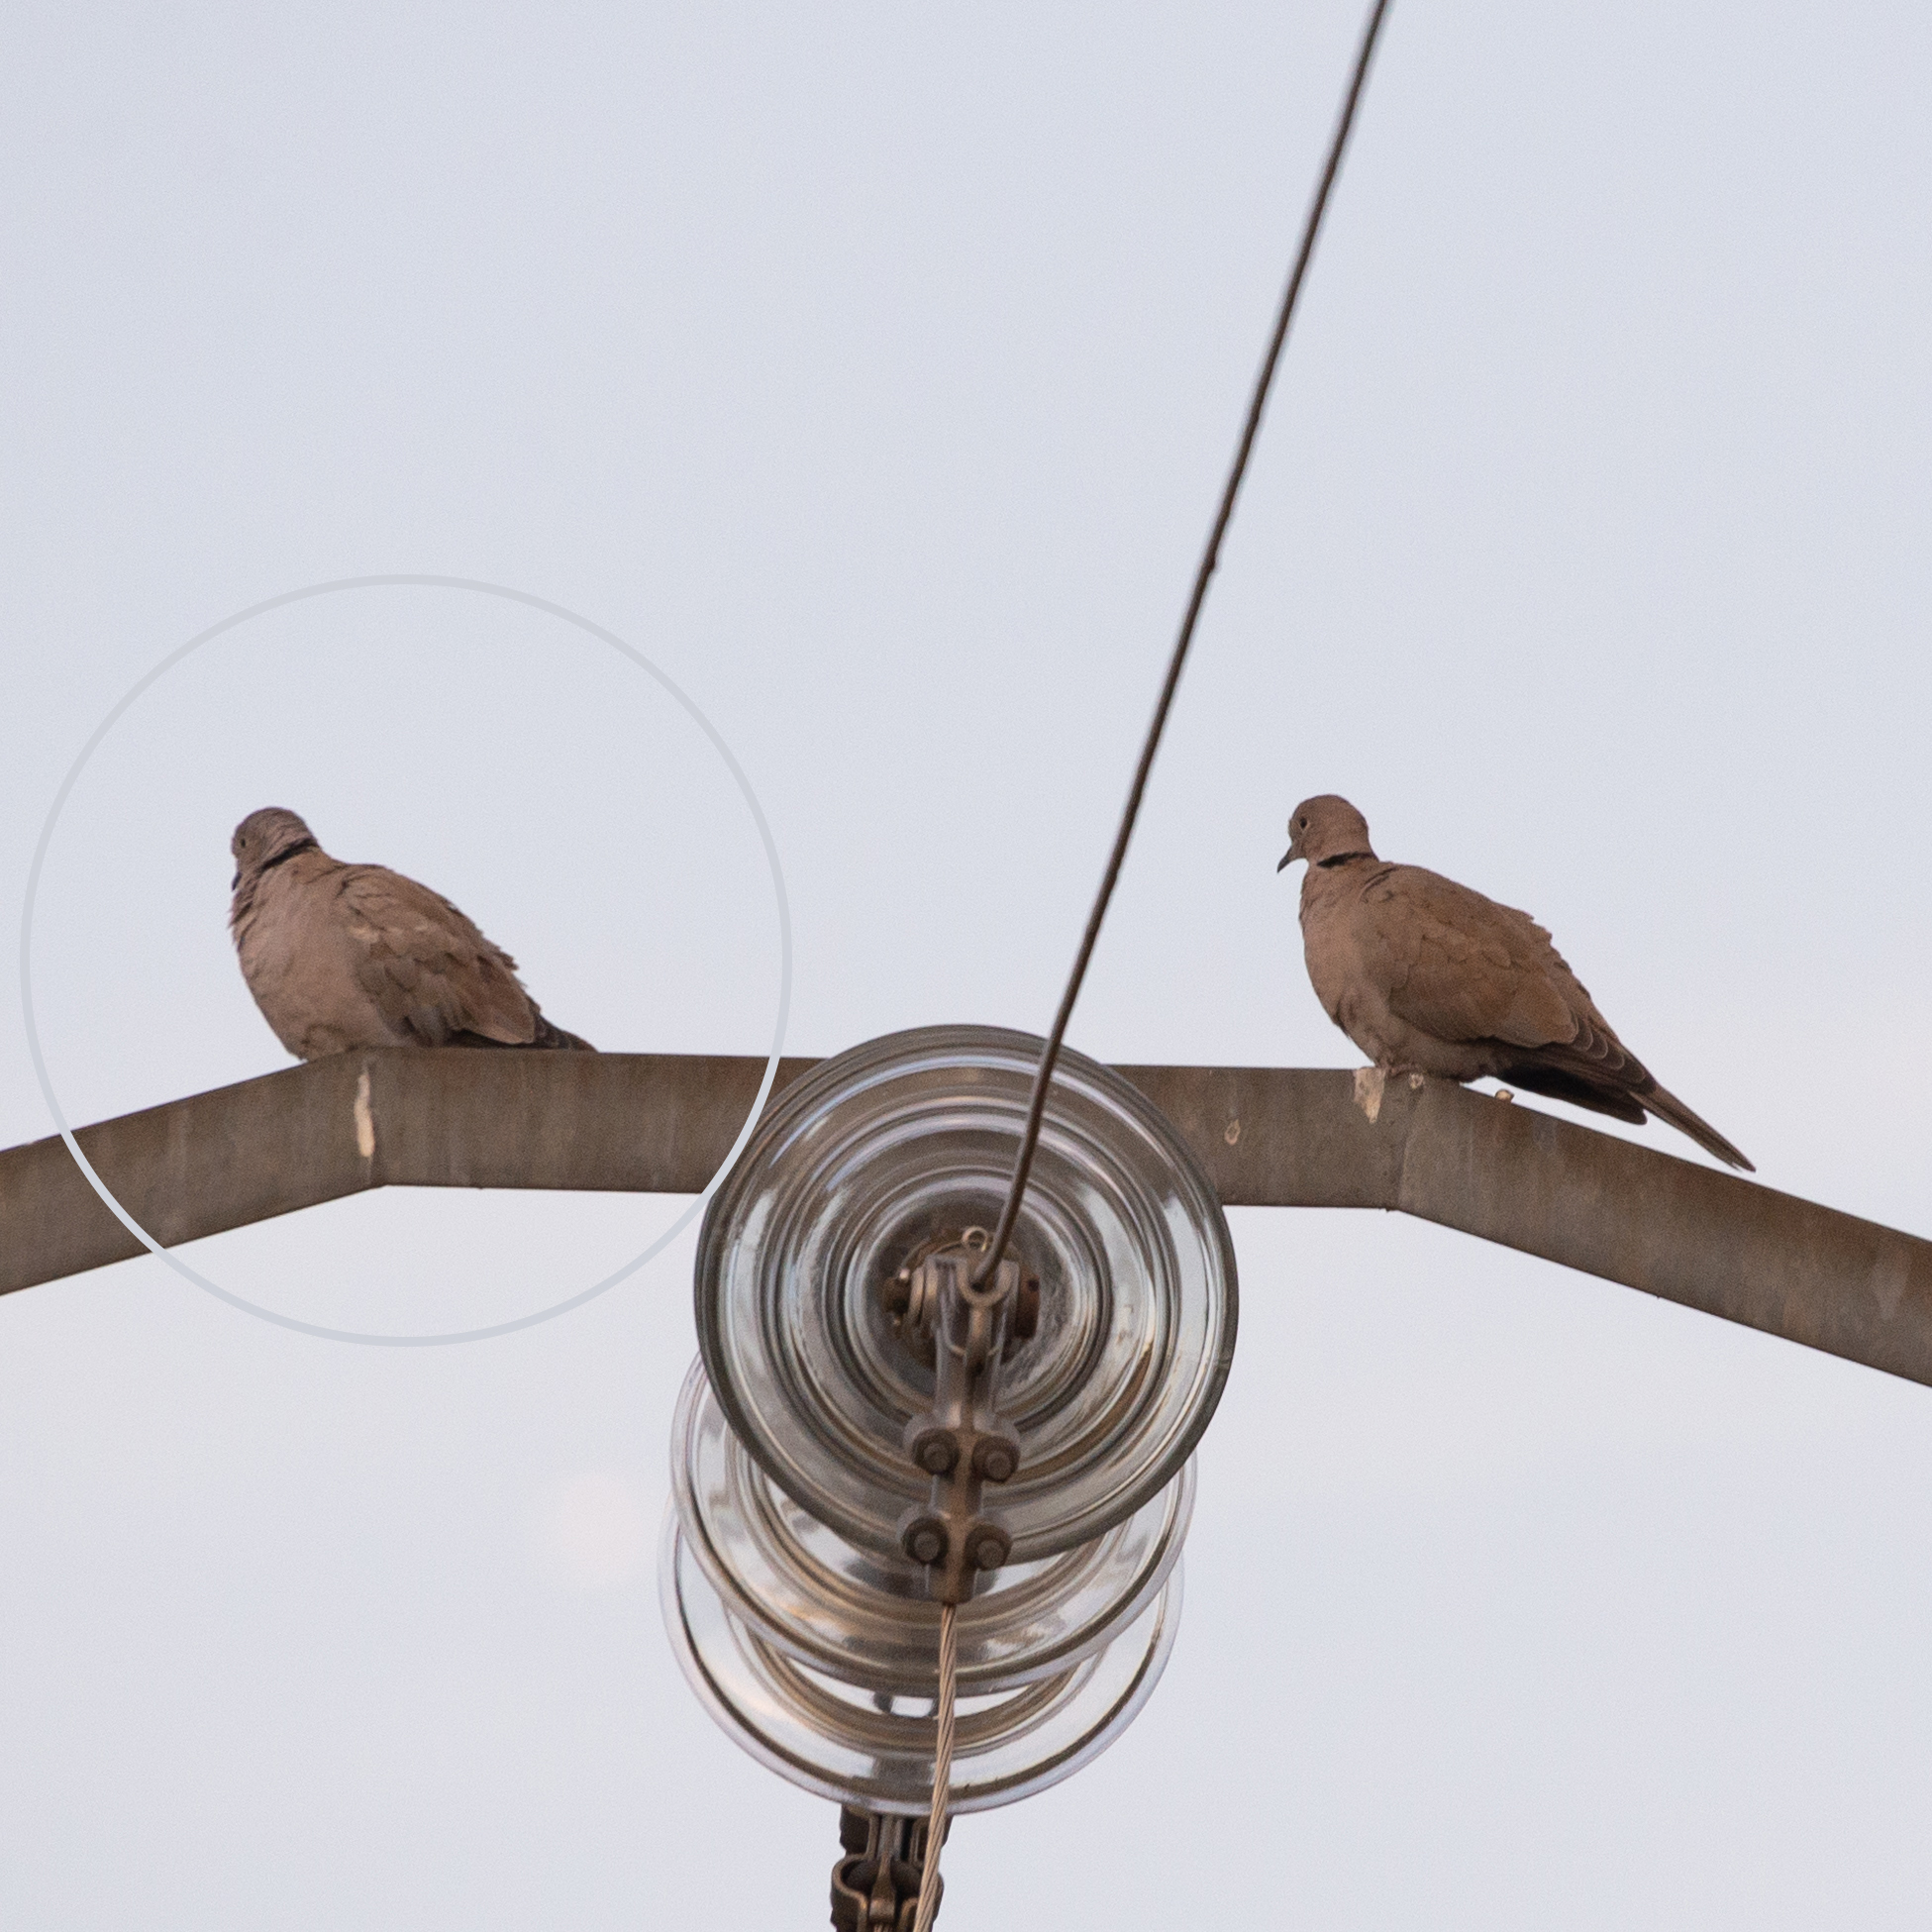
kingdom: Animalia
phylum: Chordata
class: Aves
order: Columbiformes
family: Columbidae
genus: Streptopelia
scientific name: Streptopelia decaocto
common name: Eurasian collared dove
